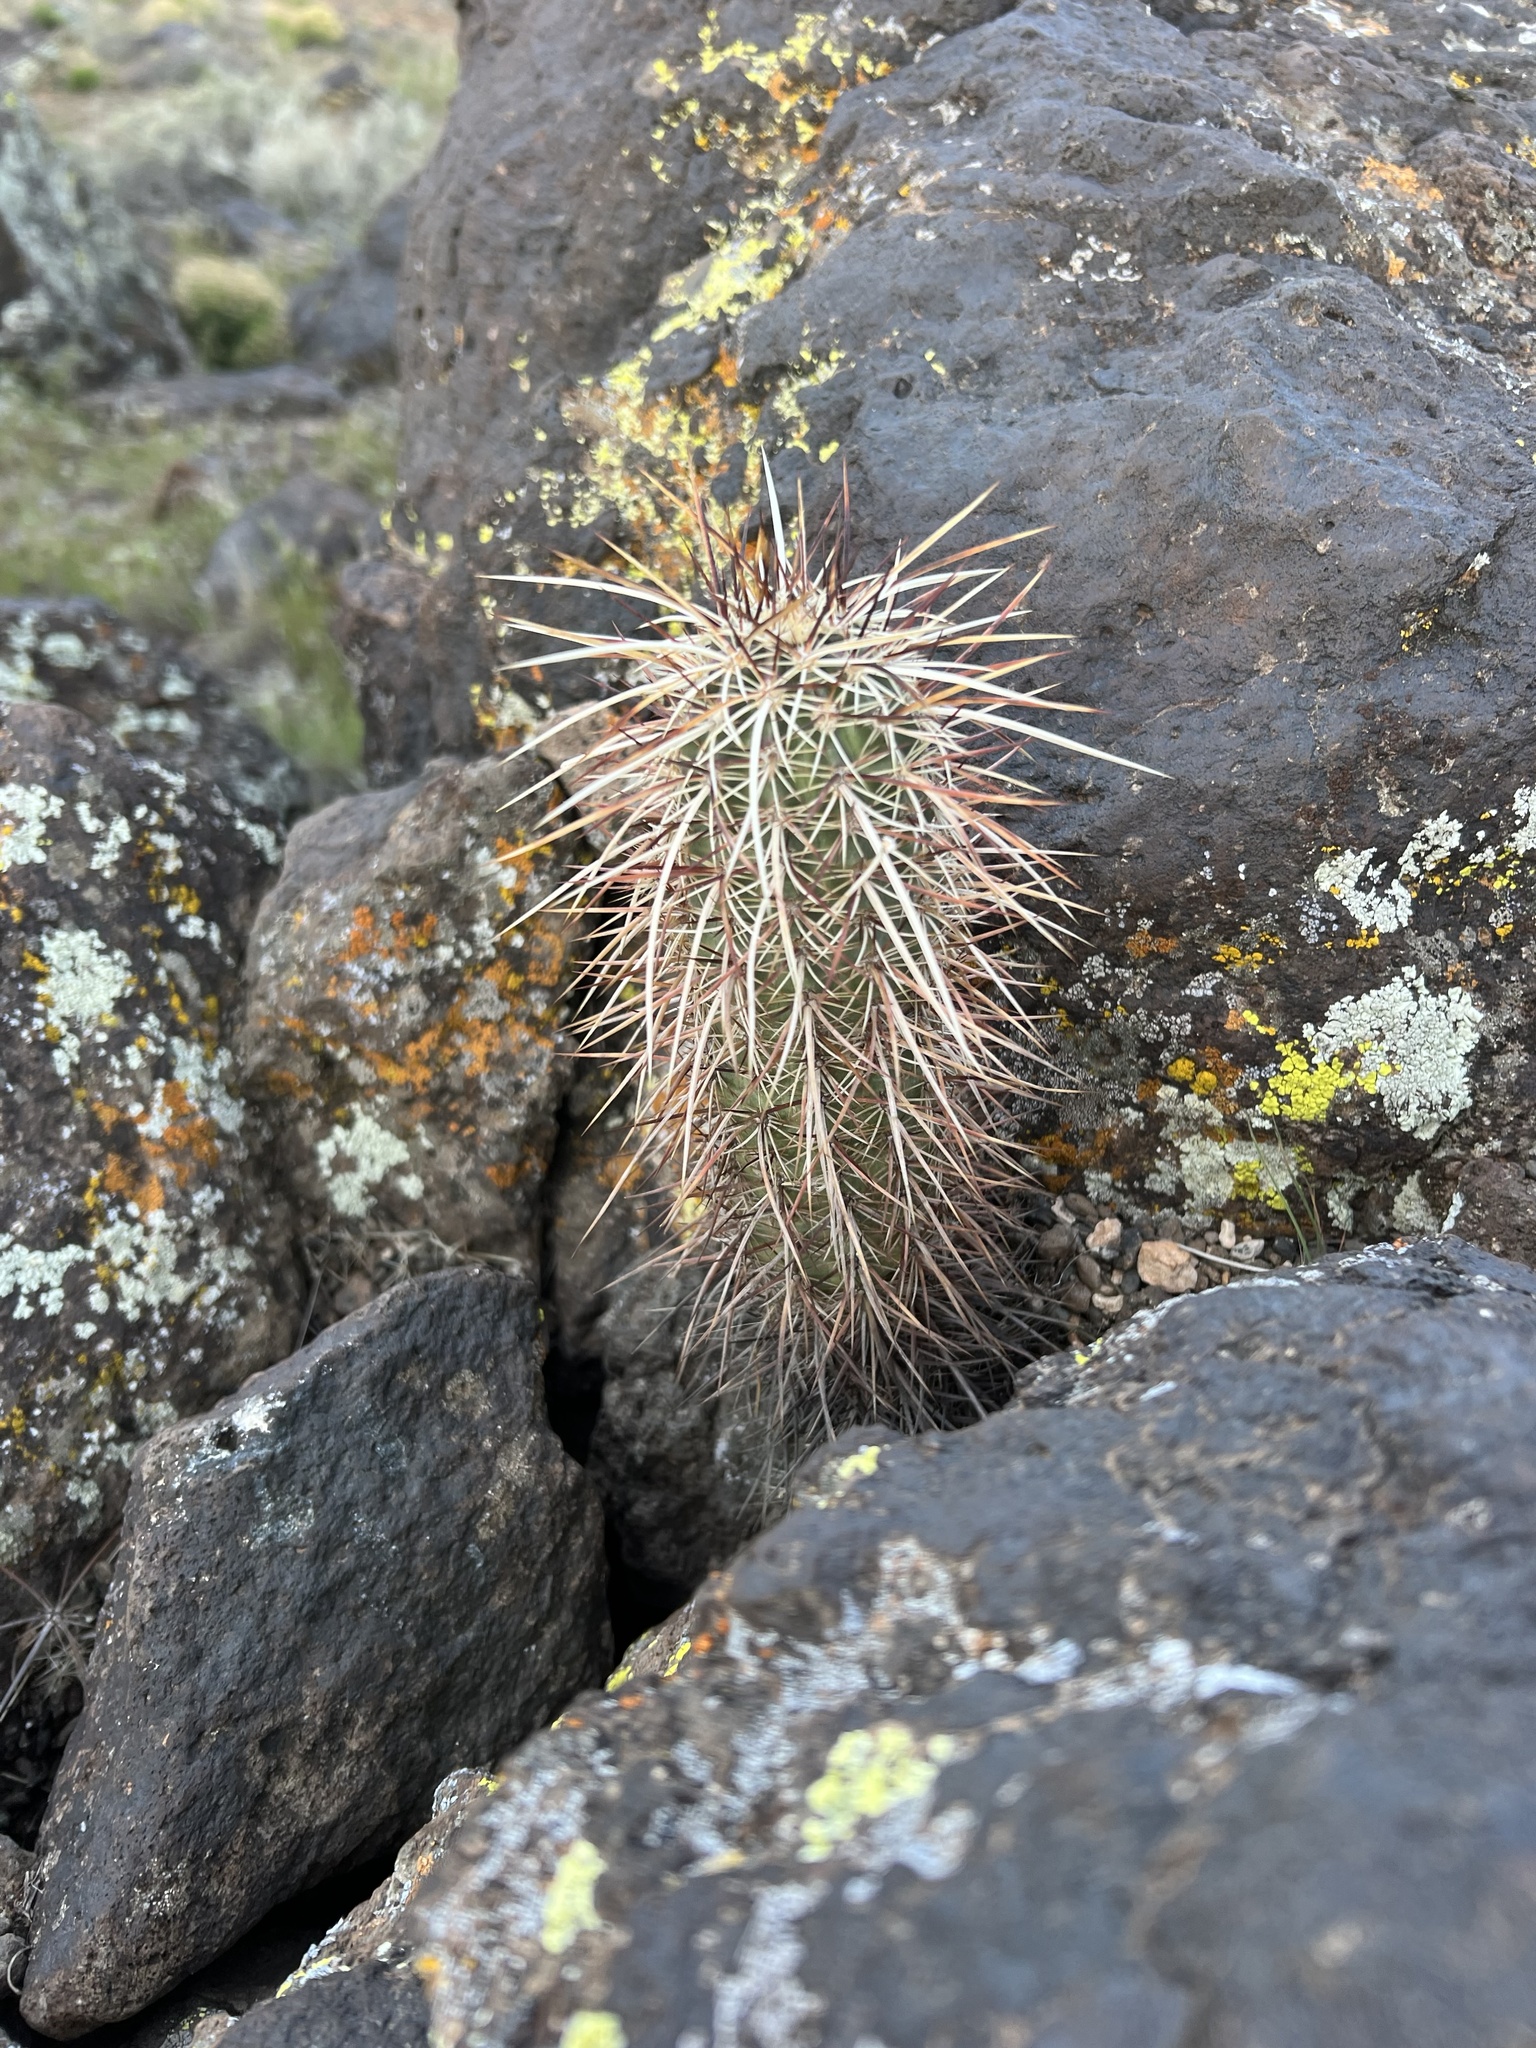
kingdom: Plantae
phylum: Tracheophyta
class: Magnoliopsida
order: Caryophyllales
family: Cactaceae
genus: Echinocereus
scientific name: Echinocereus relictus
